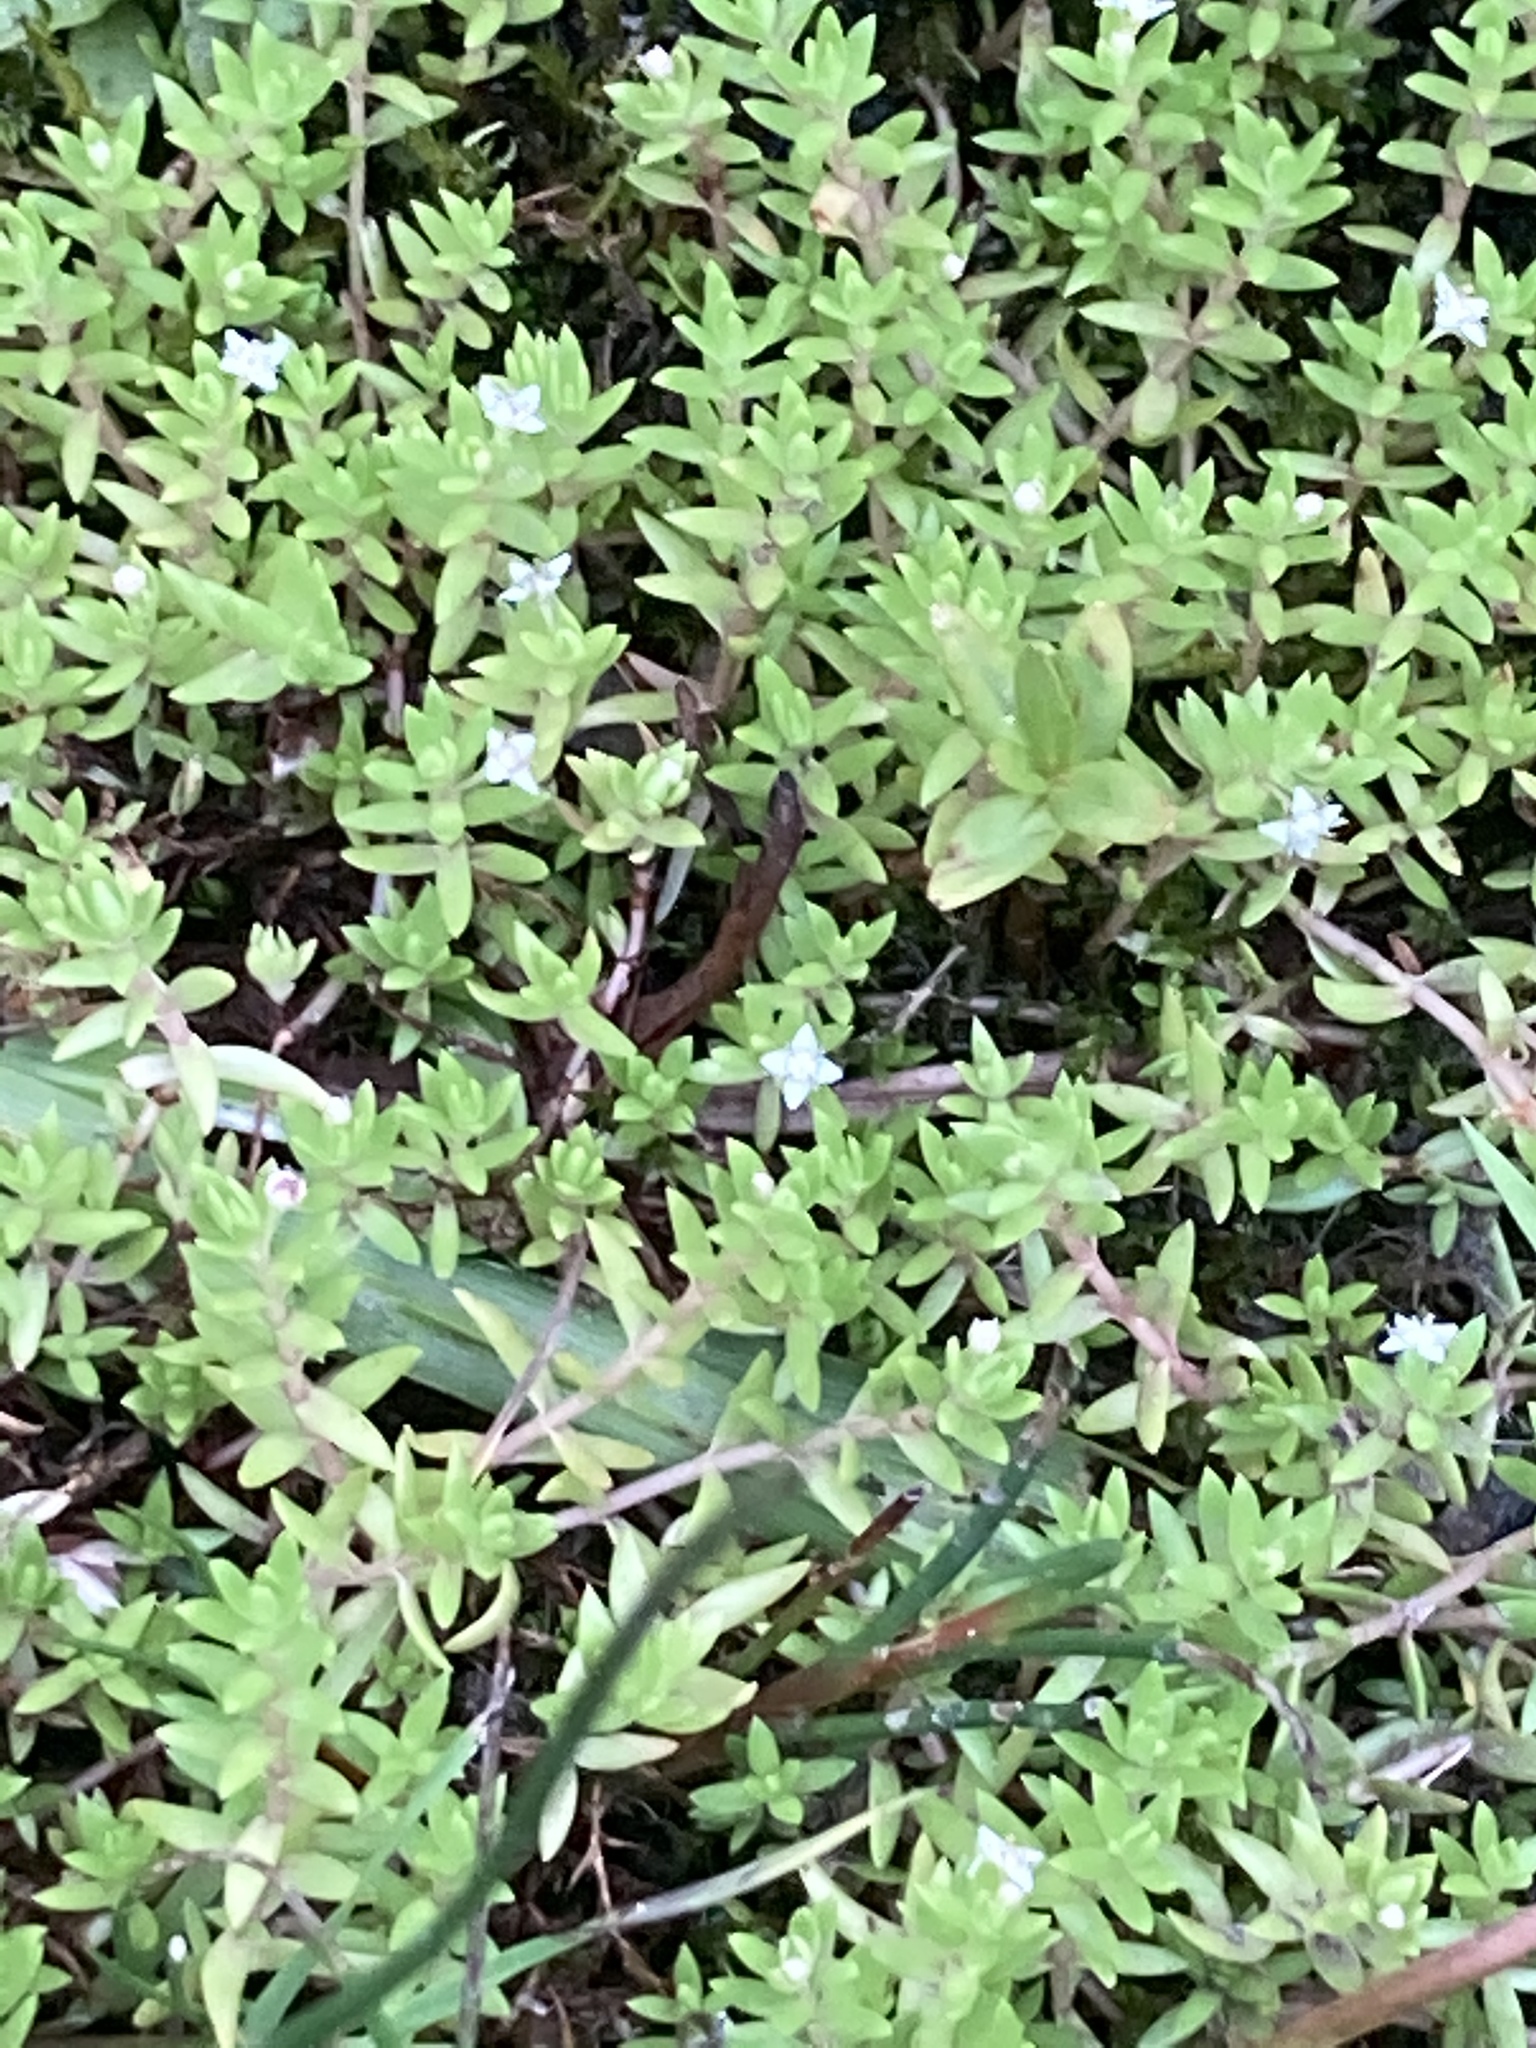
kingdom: Plantae
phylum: Tracheophyta
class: Magnoliopsida
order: Saxifragales
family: Crassulaceae
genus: Crassula
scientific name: Crassula helmsii
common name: New zealand pigmyweed
